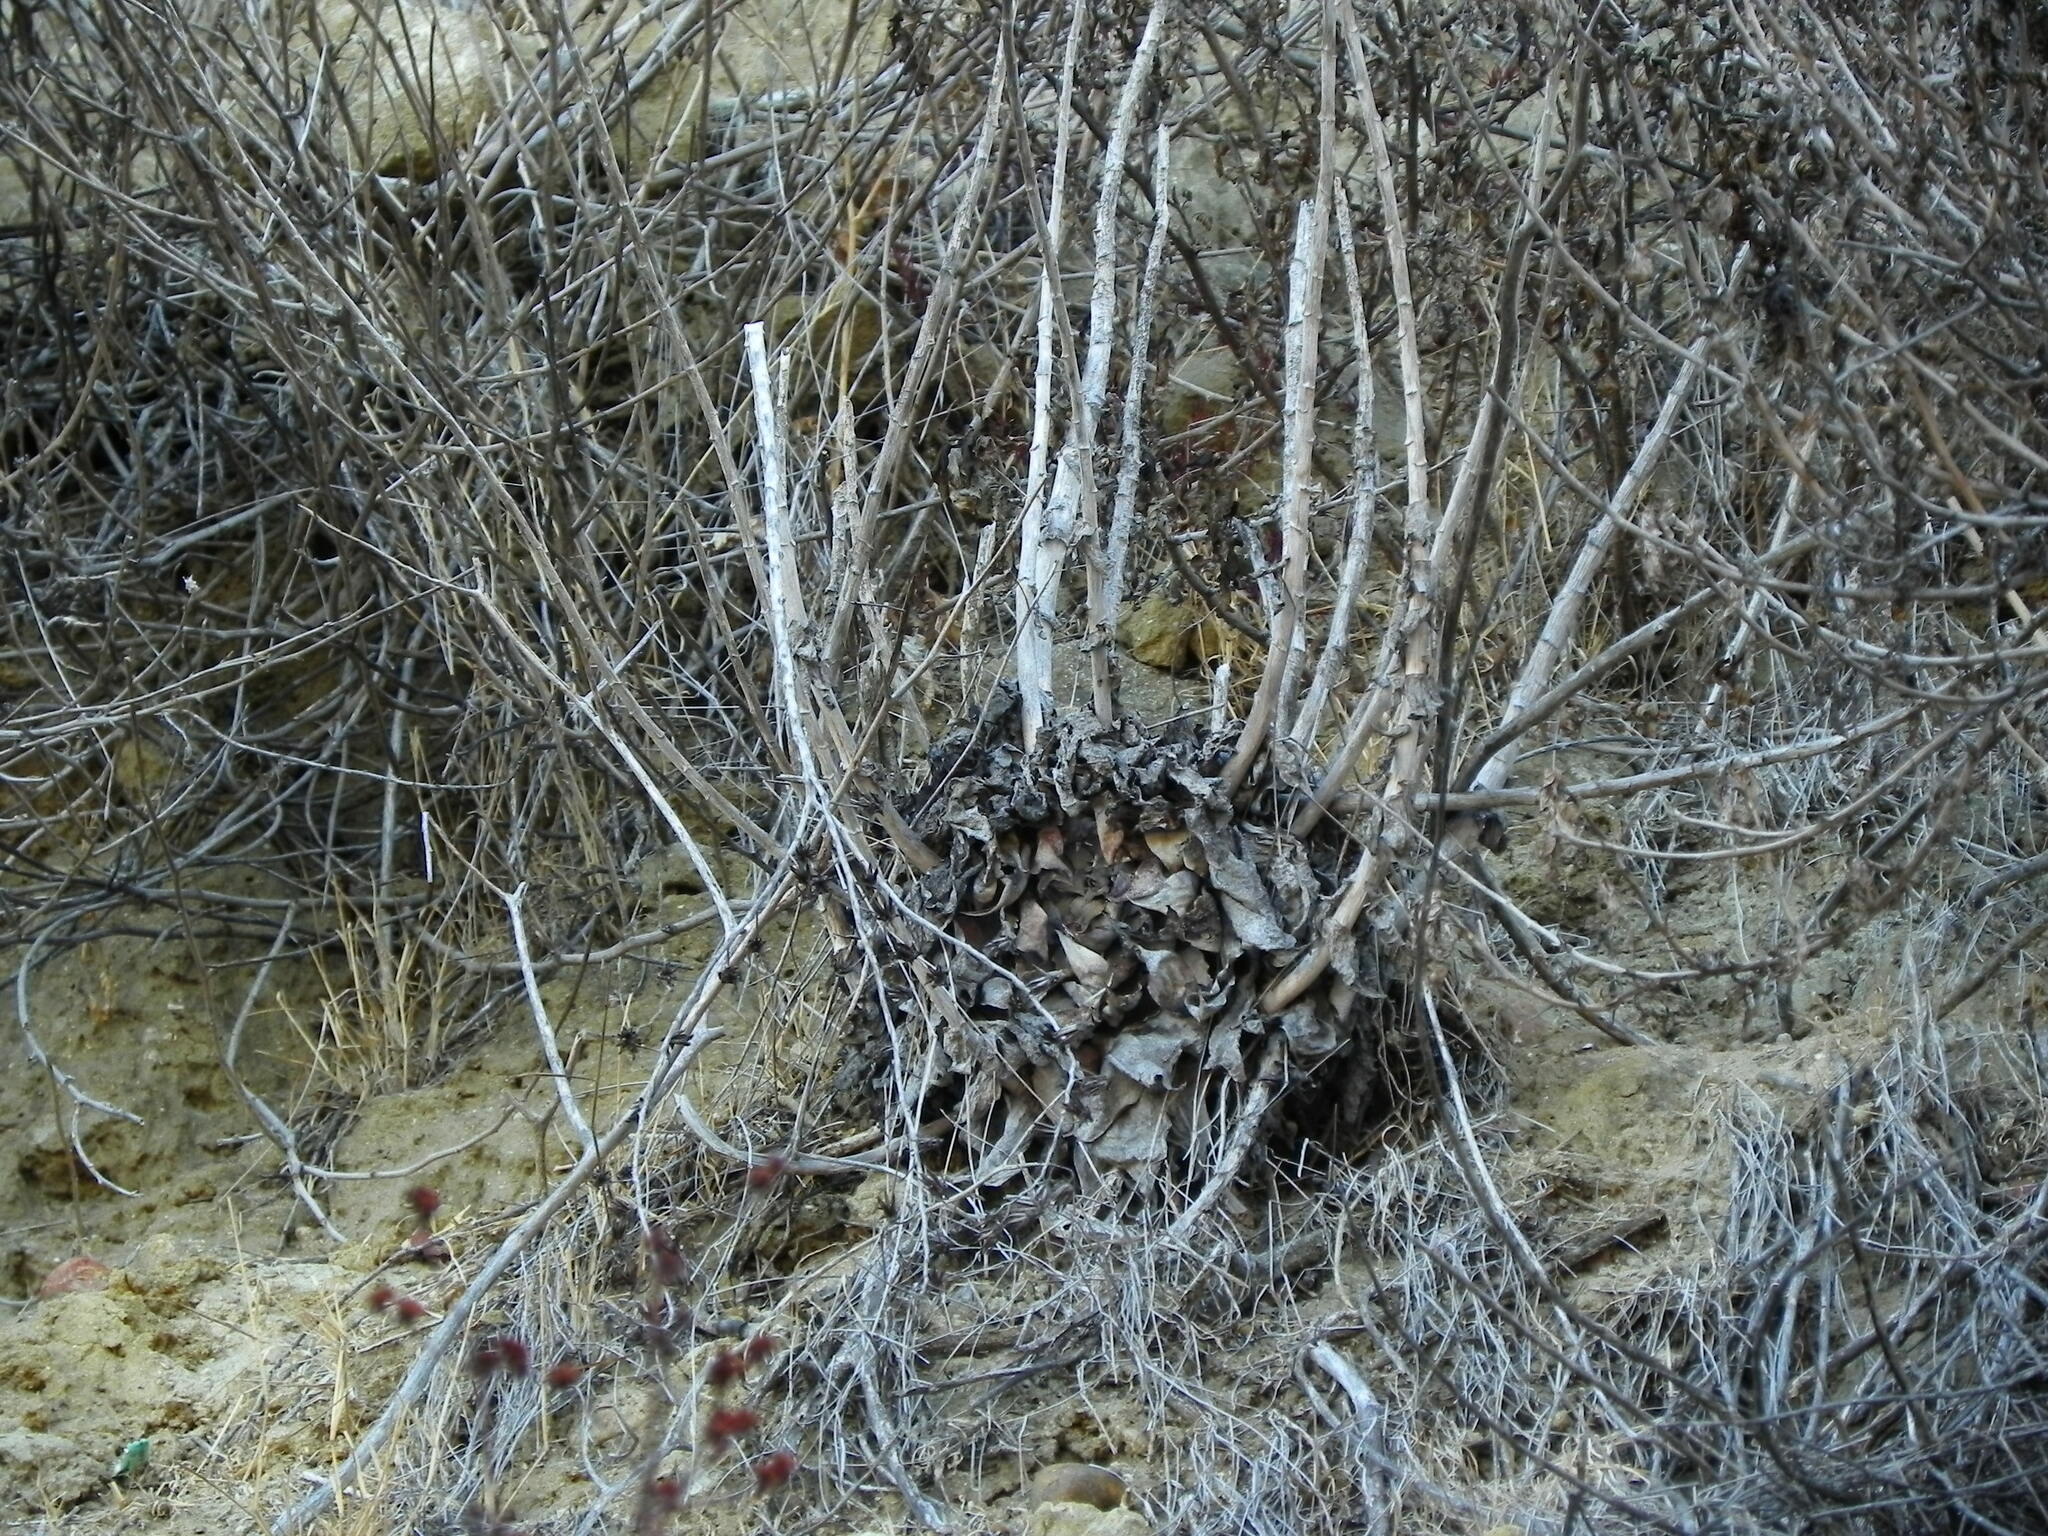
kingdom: Plantae
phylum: Tracheophyta
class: Magnoliopsida
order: Saxifragales
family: Crassulaceae
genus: Dudleya
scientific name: Dudleya pulverulenta
